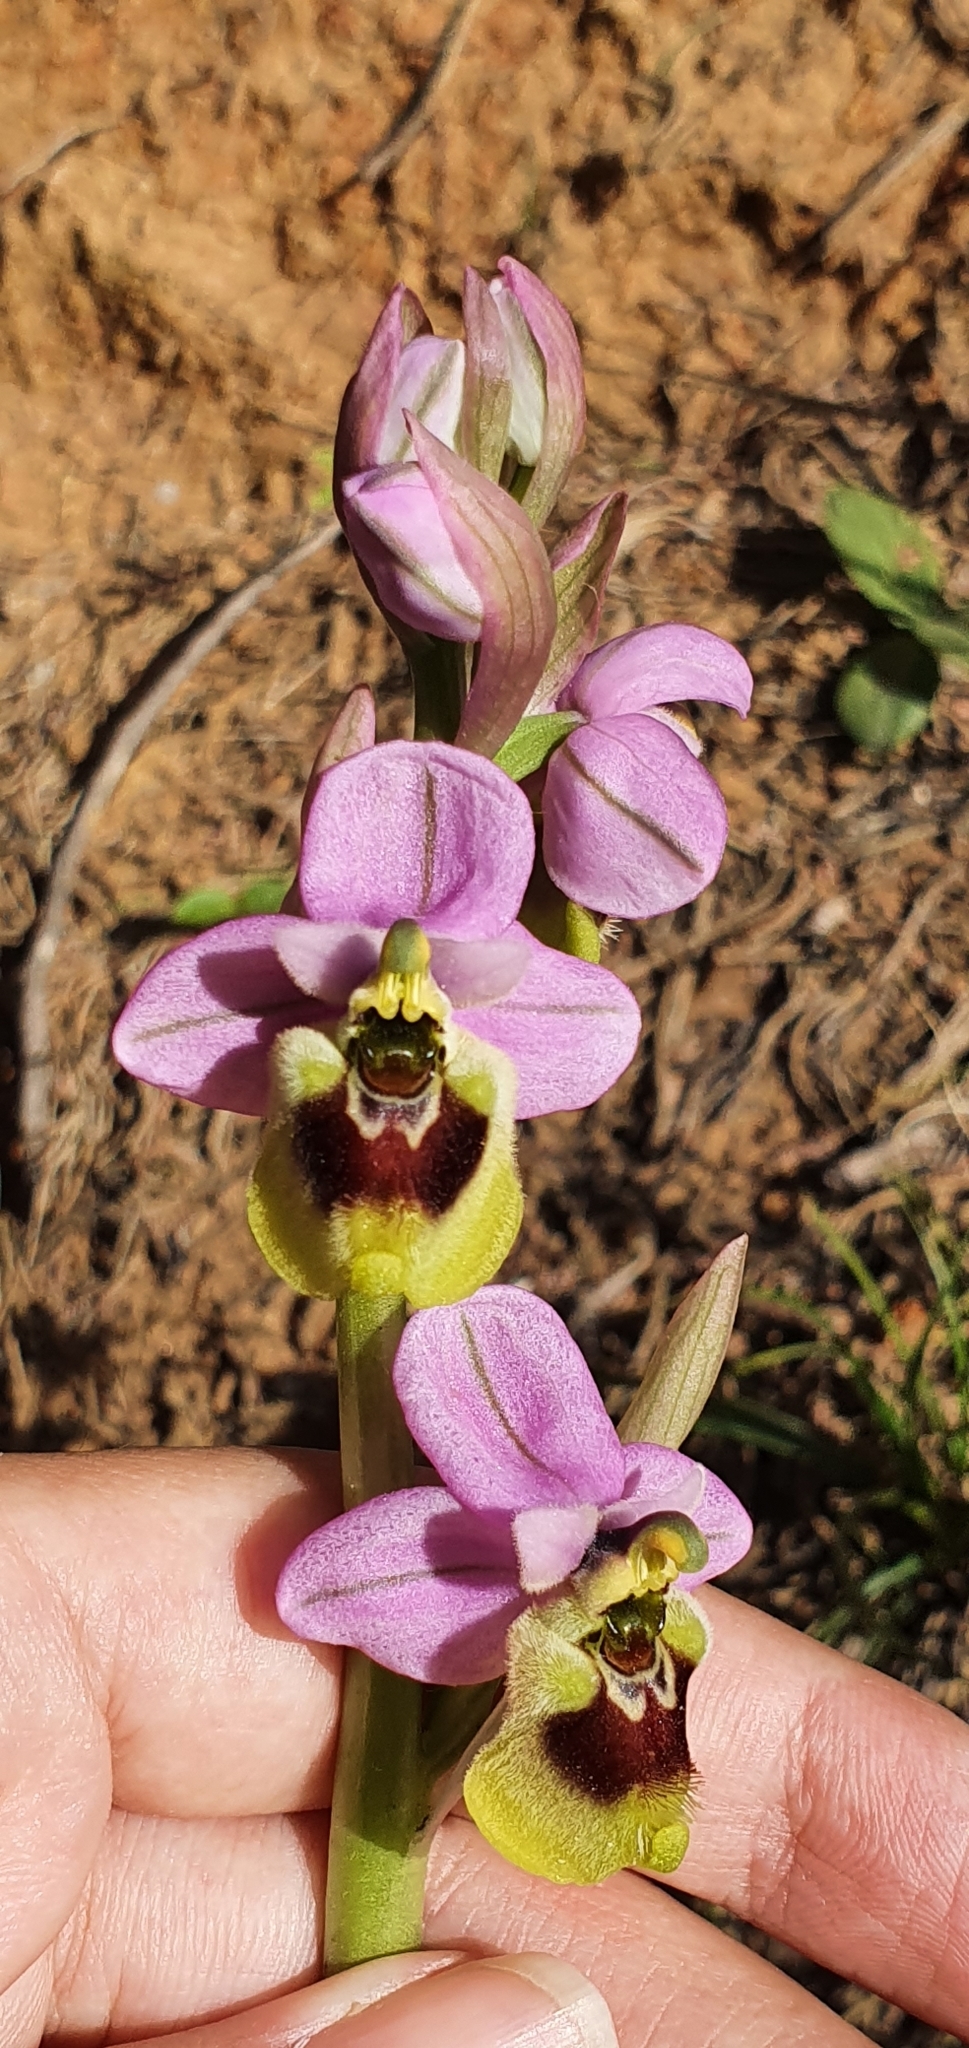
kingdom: Plantae
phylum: Tracheophyta
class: Liliopsida
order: Asparagales
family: Orchidaceae
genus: Ophrys
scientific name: Ophrys tenthredinifera
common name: Sawfly orchid
